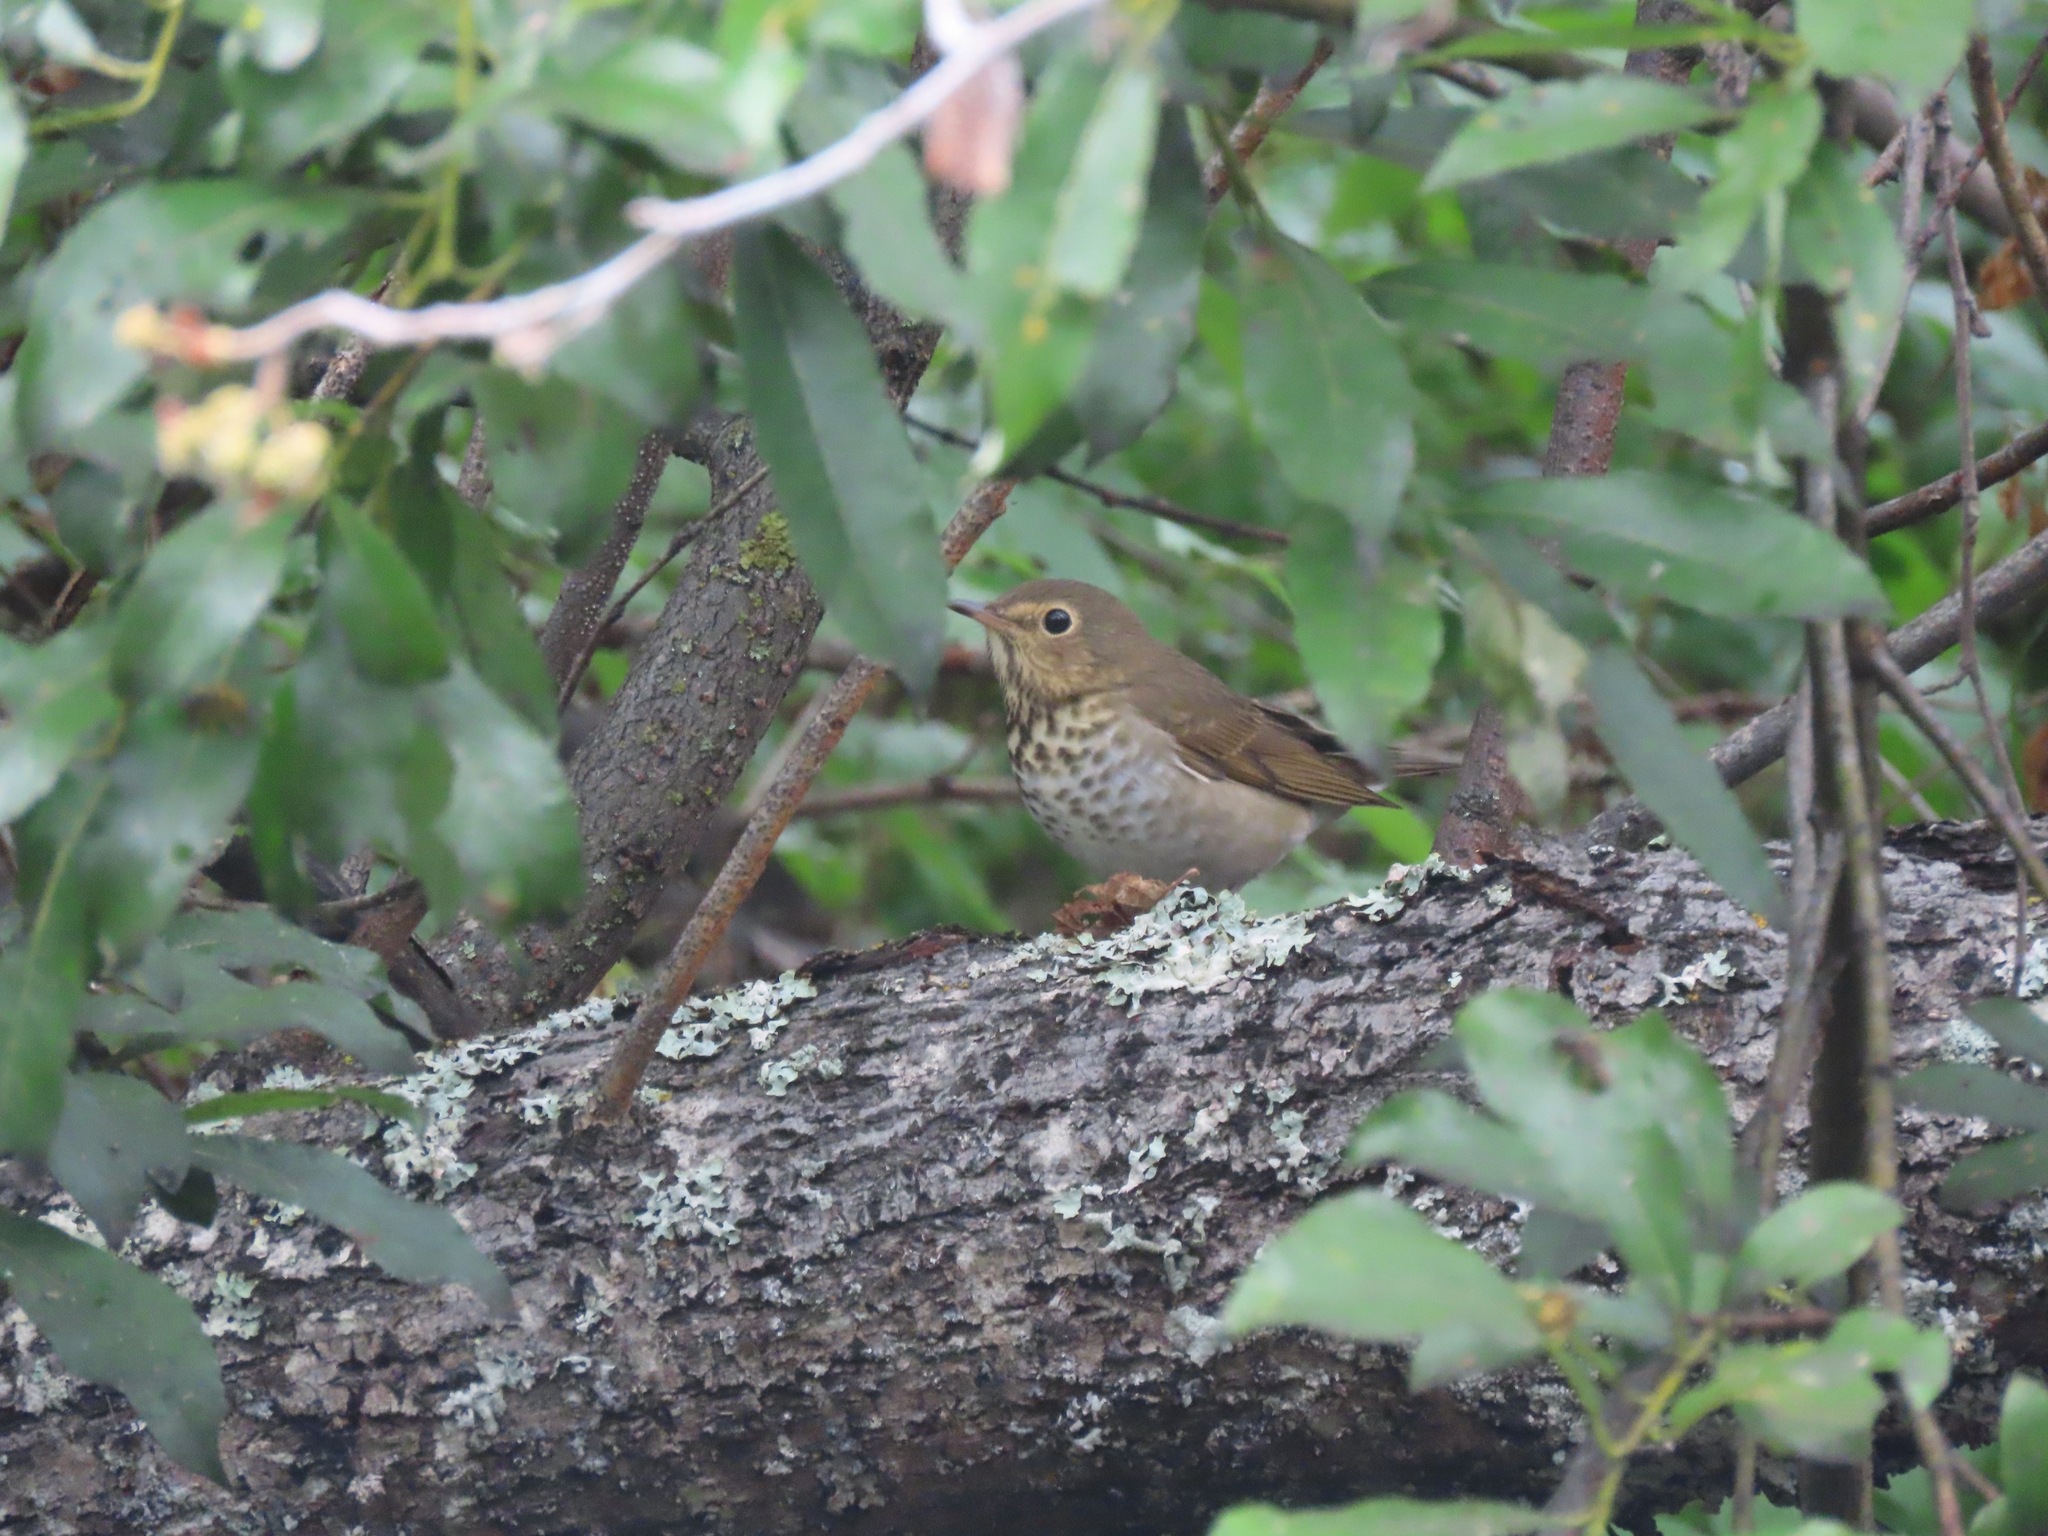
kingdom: Animalia
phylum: Chordata
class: Aves
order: Passeriformes
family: Turdidae
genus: Catharus
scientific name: Catharus guttatus
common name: Hermit thrush
